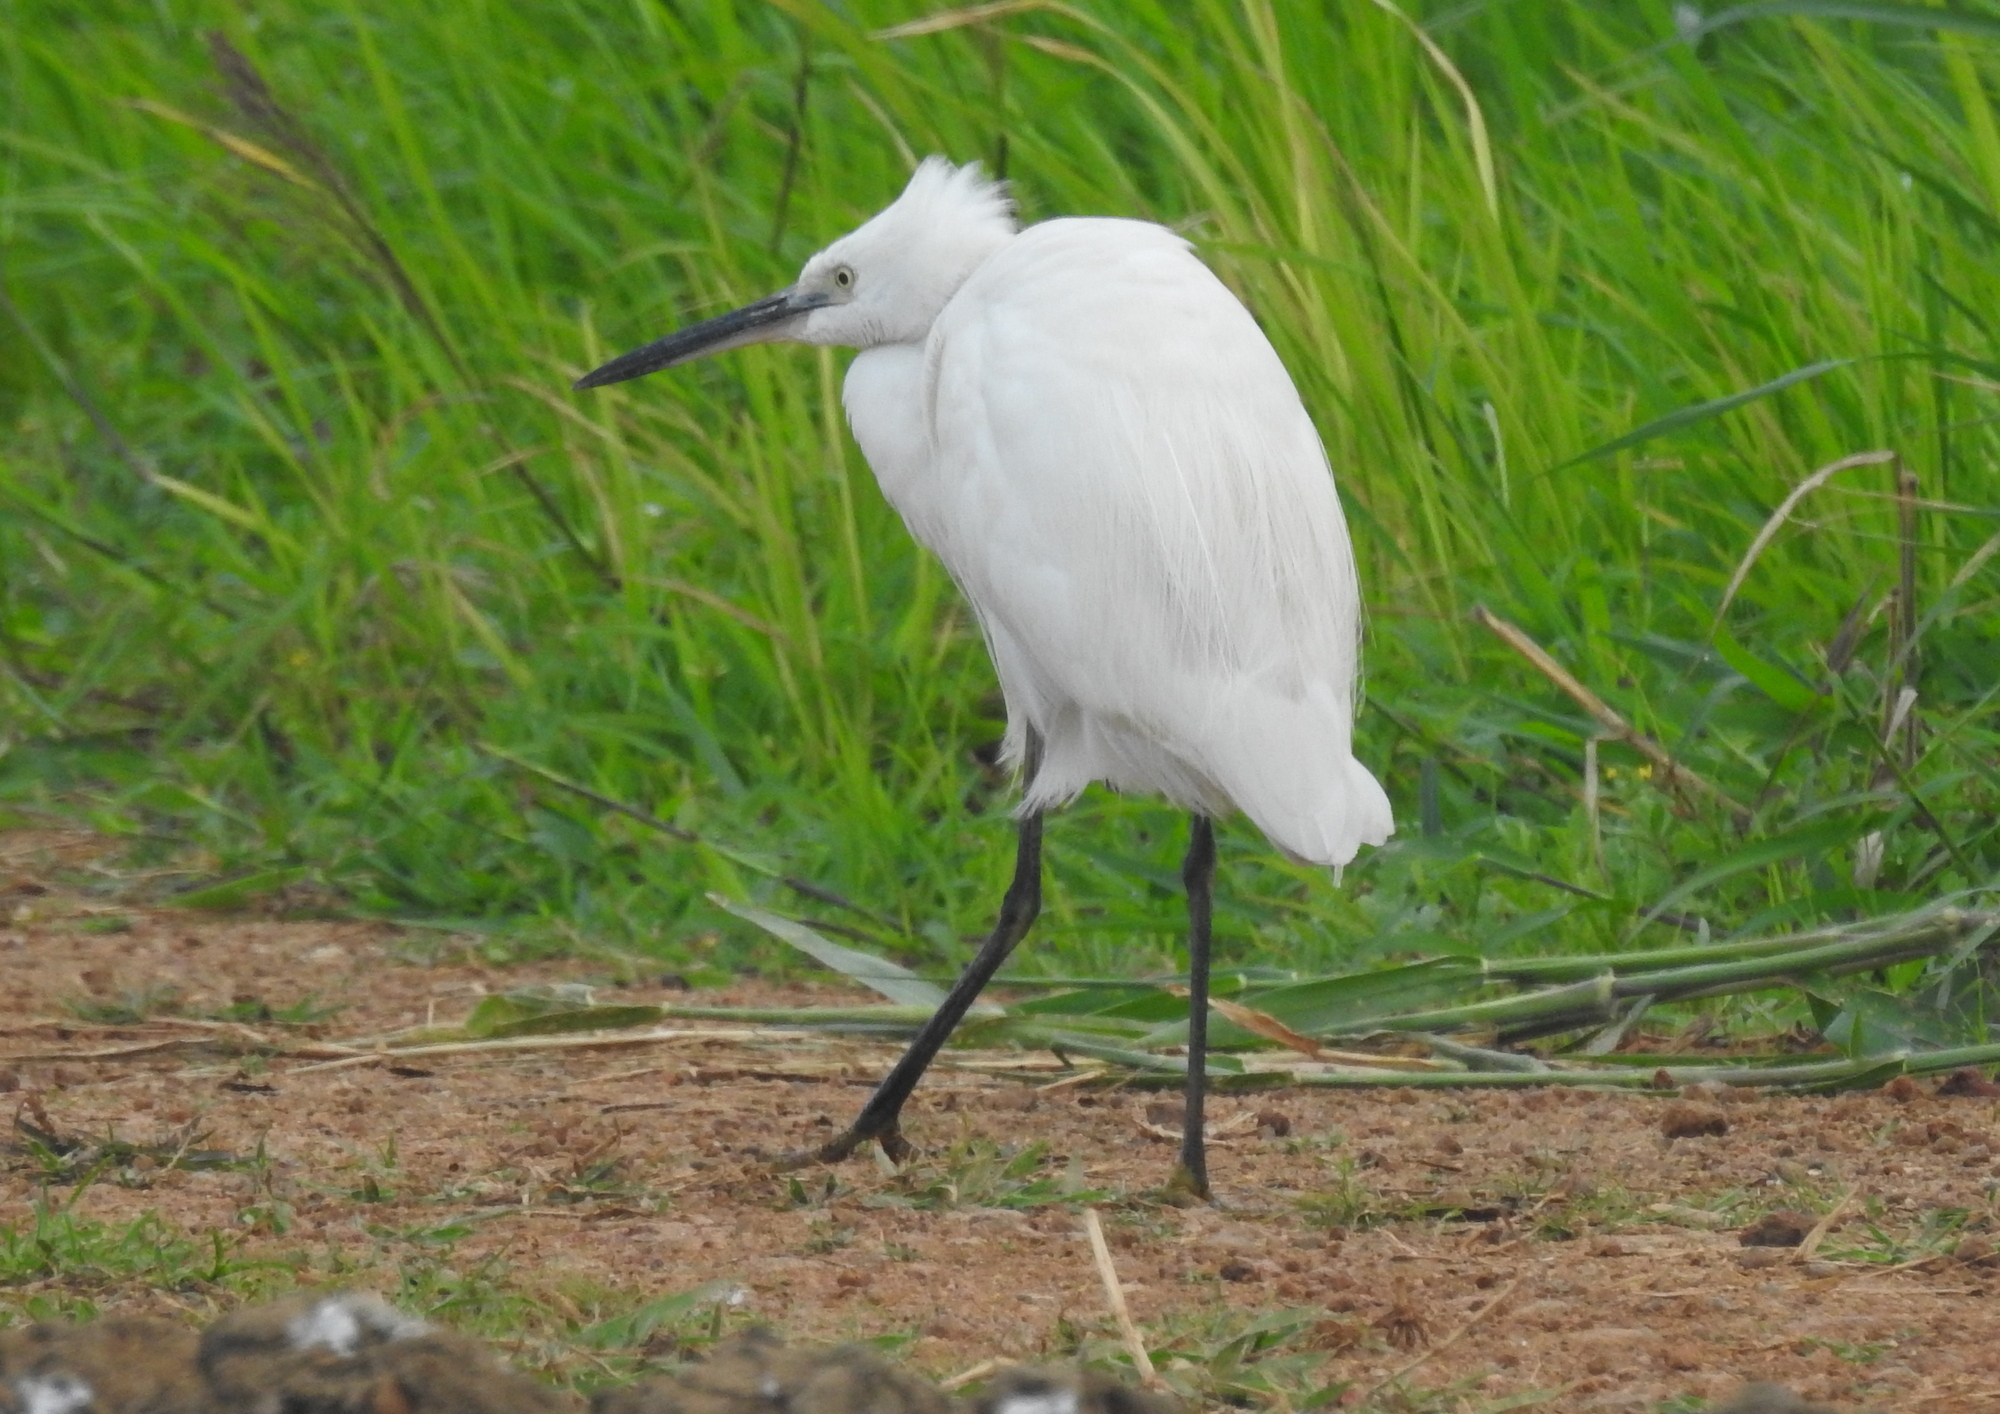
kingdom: Animalia
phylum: Chordata
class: Aves
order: Pelecaniformes
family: Ardeidae
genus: Egretta
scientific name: Egretta garzetta
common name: Little egret
